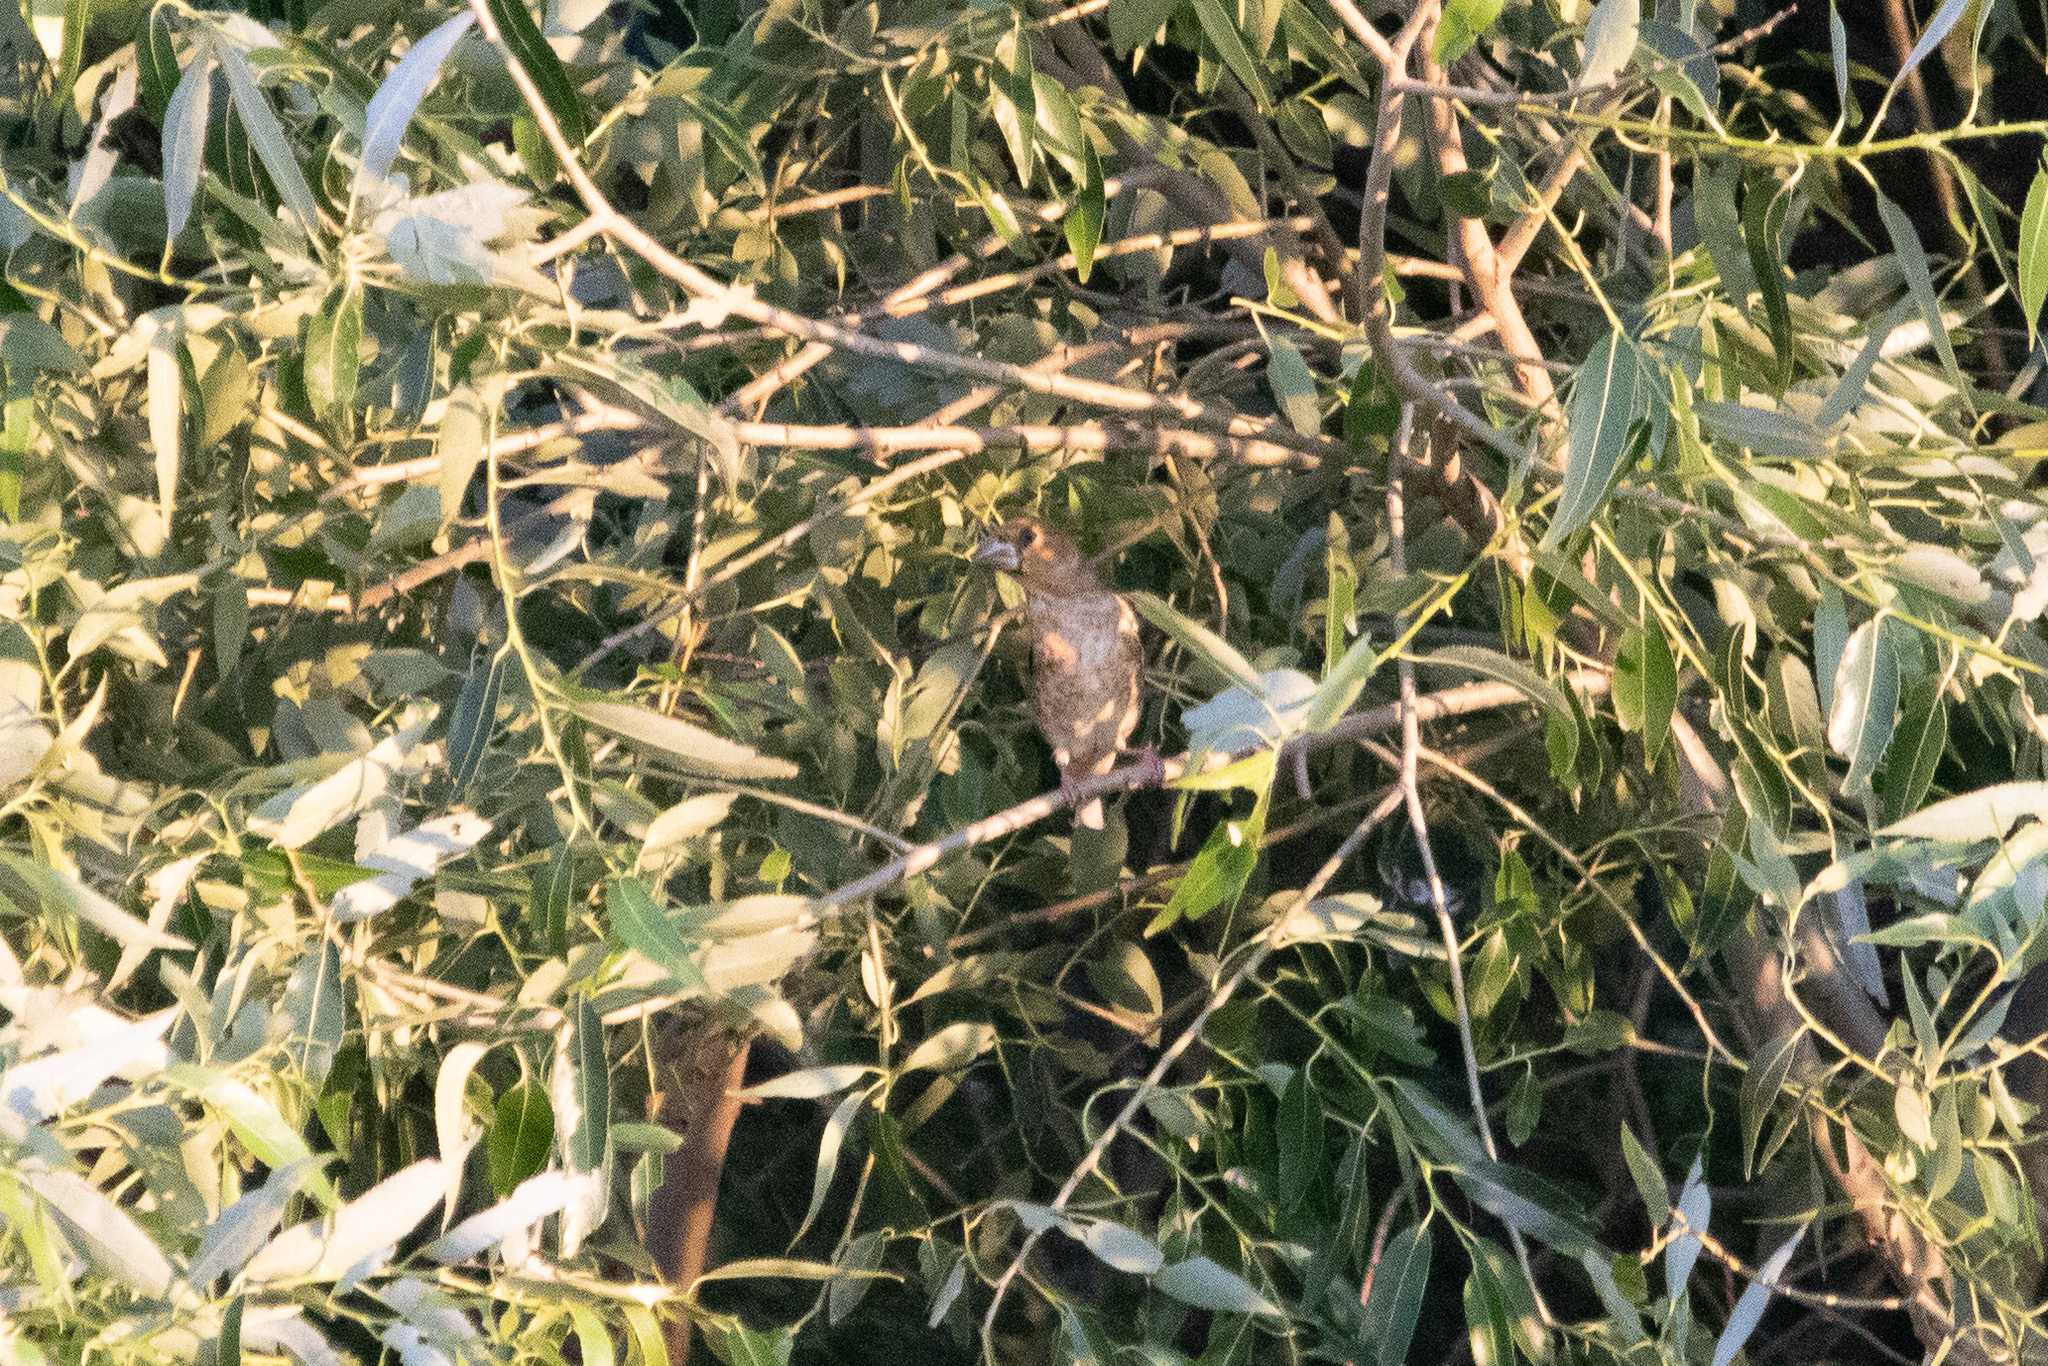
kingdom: Animalia
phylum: Chordata
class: Aves
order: Passeriformes
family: Fringillidae
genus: Coccothraustes
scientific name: Coccothraustes coccothraustes
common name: Hawfinch
